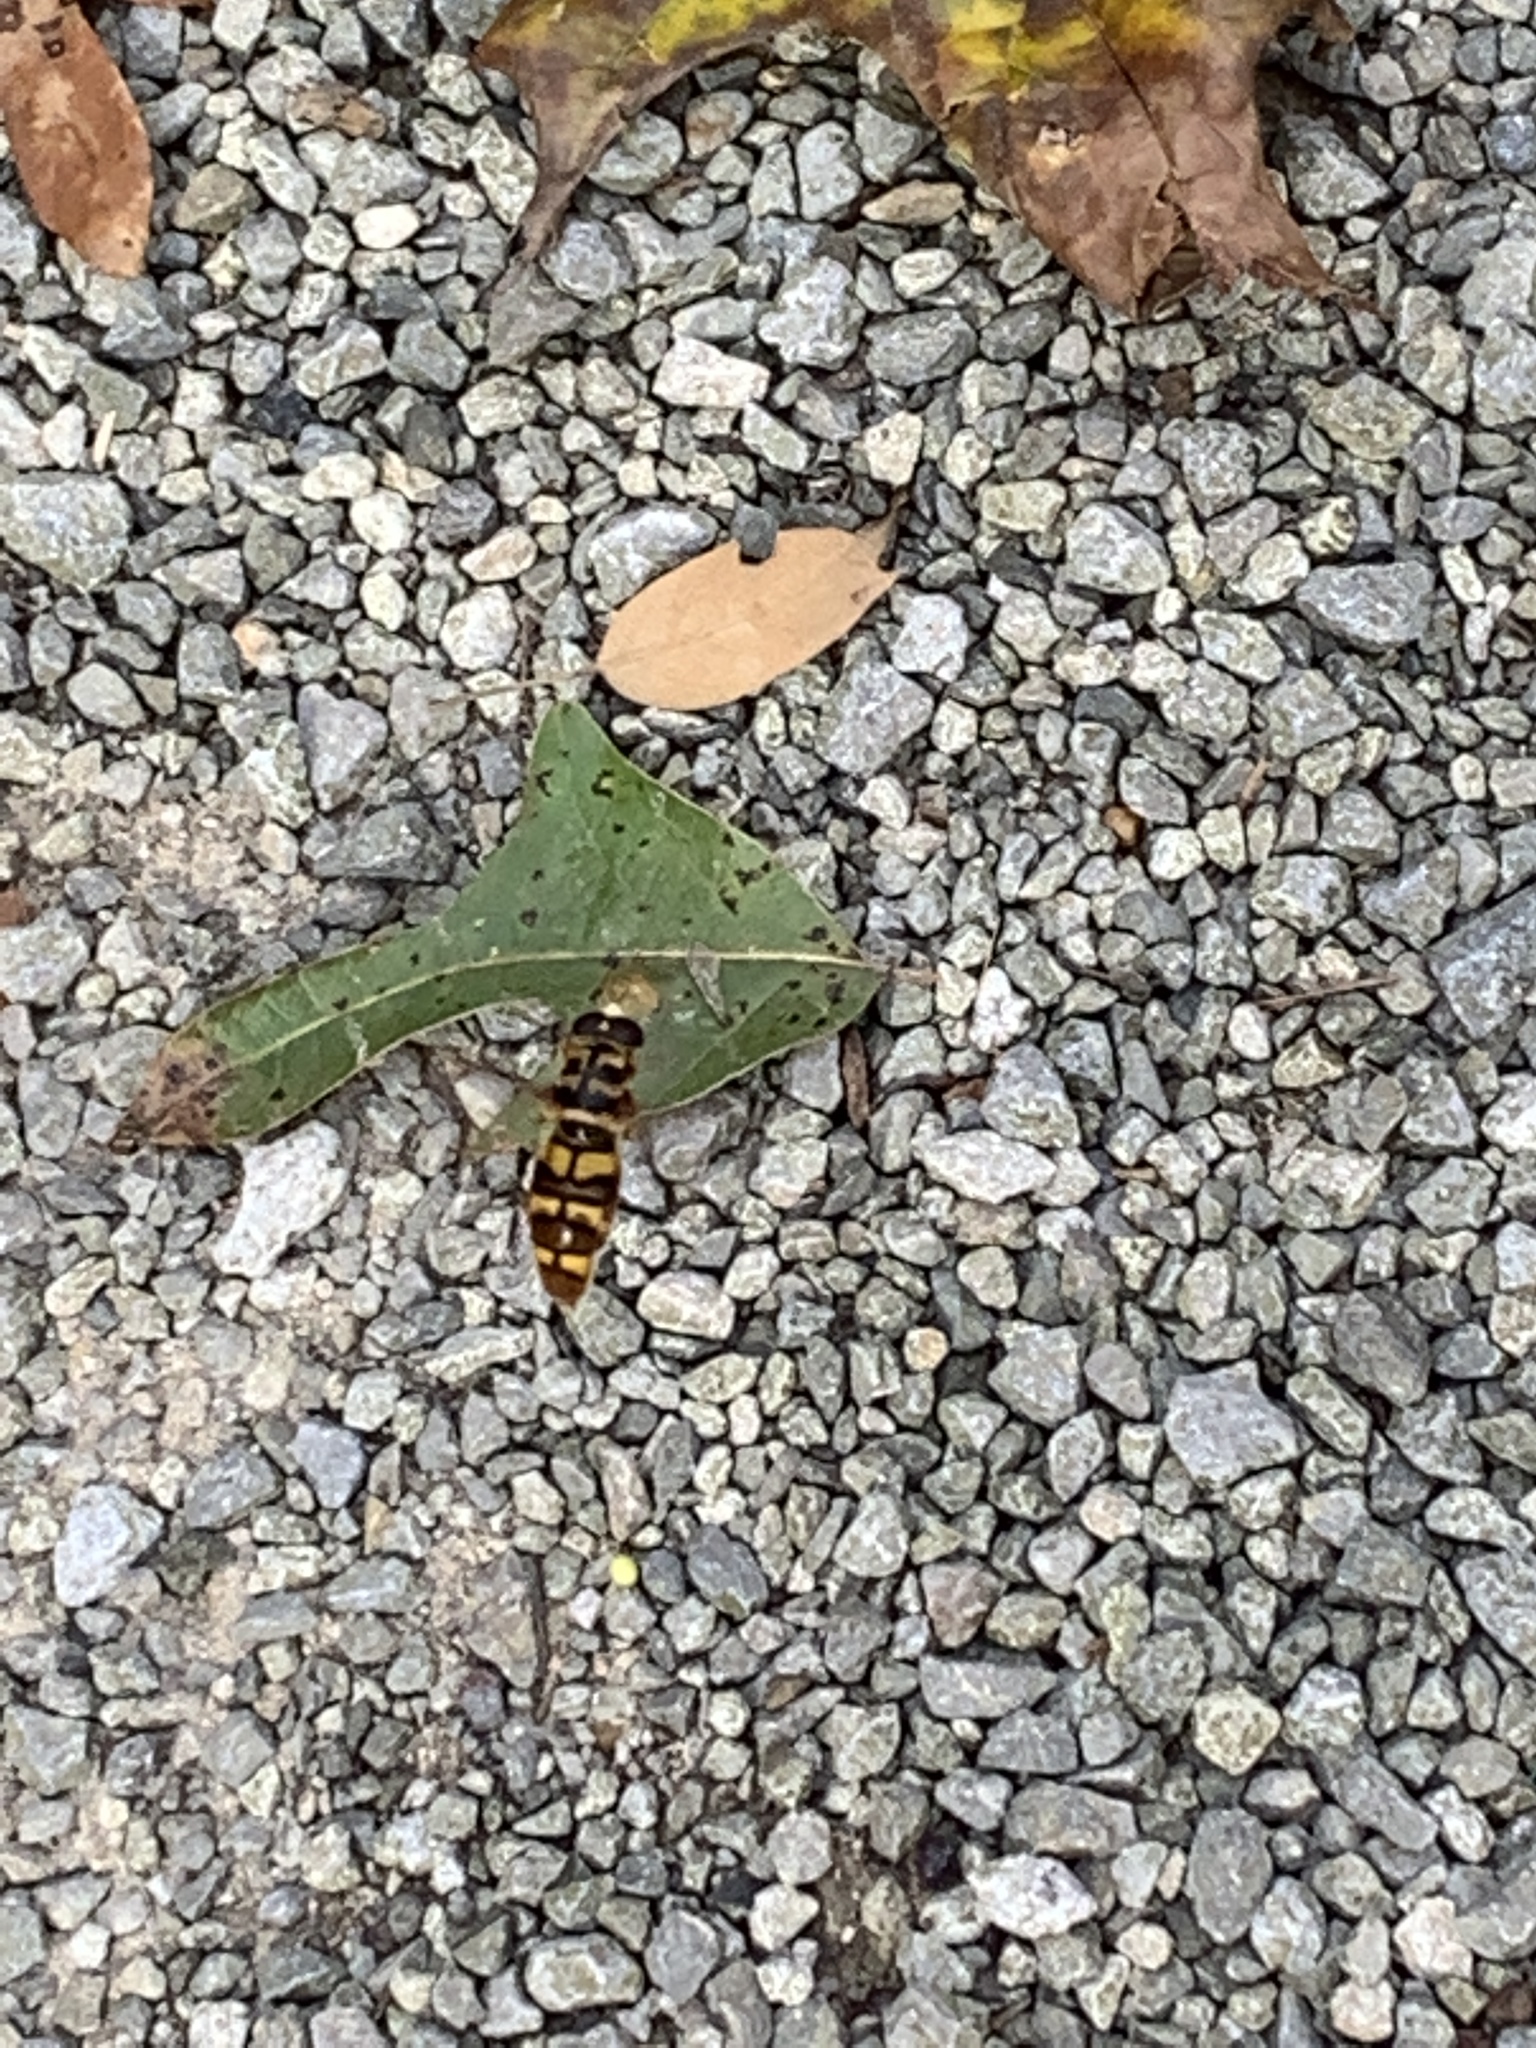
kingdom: Animalia
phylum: Arthropoda
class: Insecta
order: Diptera
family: Syrphidae
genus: Milesia
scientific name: Milesia virginiensis
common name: Virginia giant
